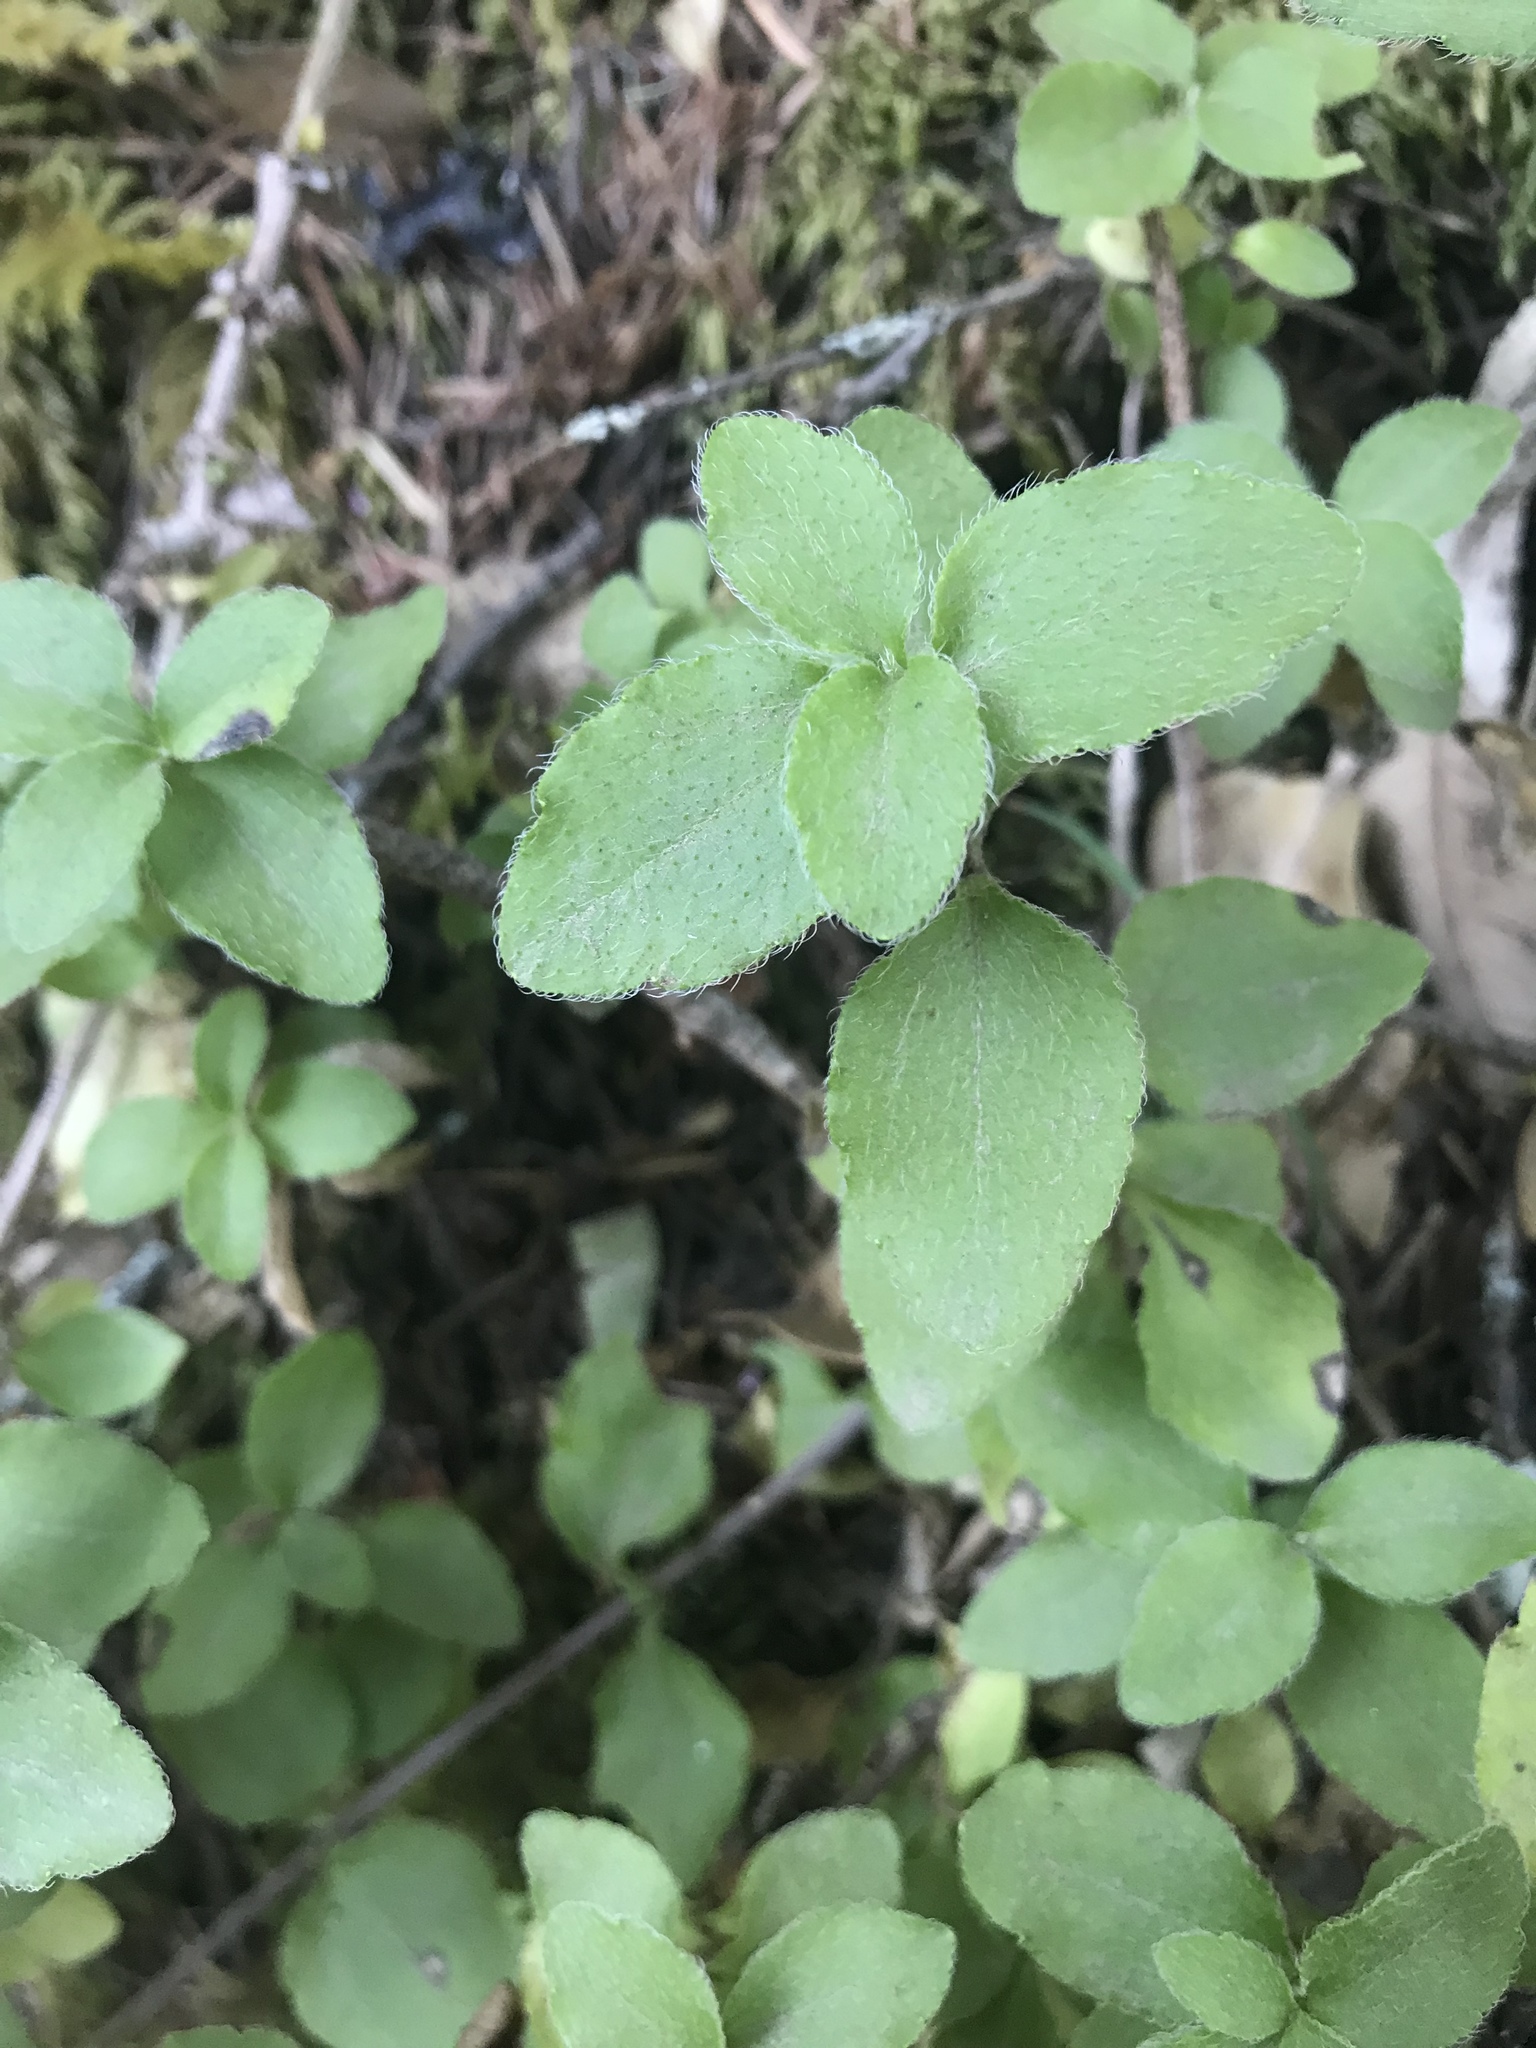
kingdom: Plantae
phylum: Tracheophyta
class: Magnoliopsida
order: Cornales
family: Hydrangeaceae
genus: Whipplea
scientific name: Whipplea modesta
